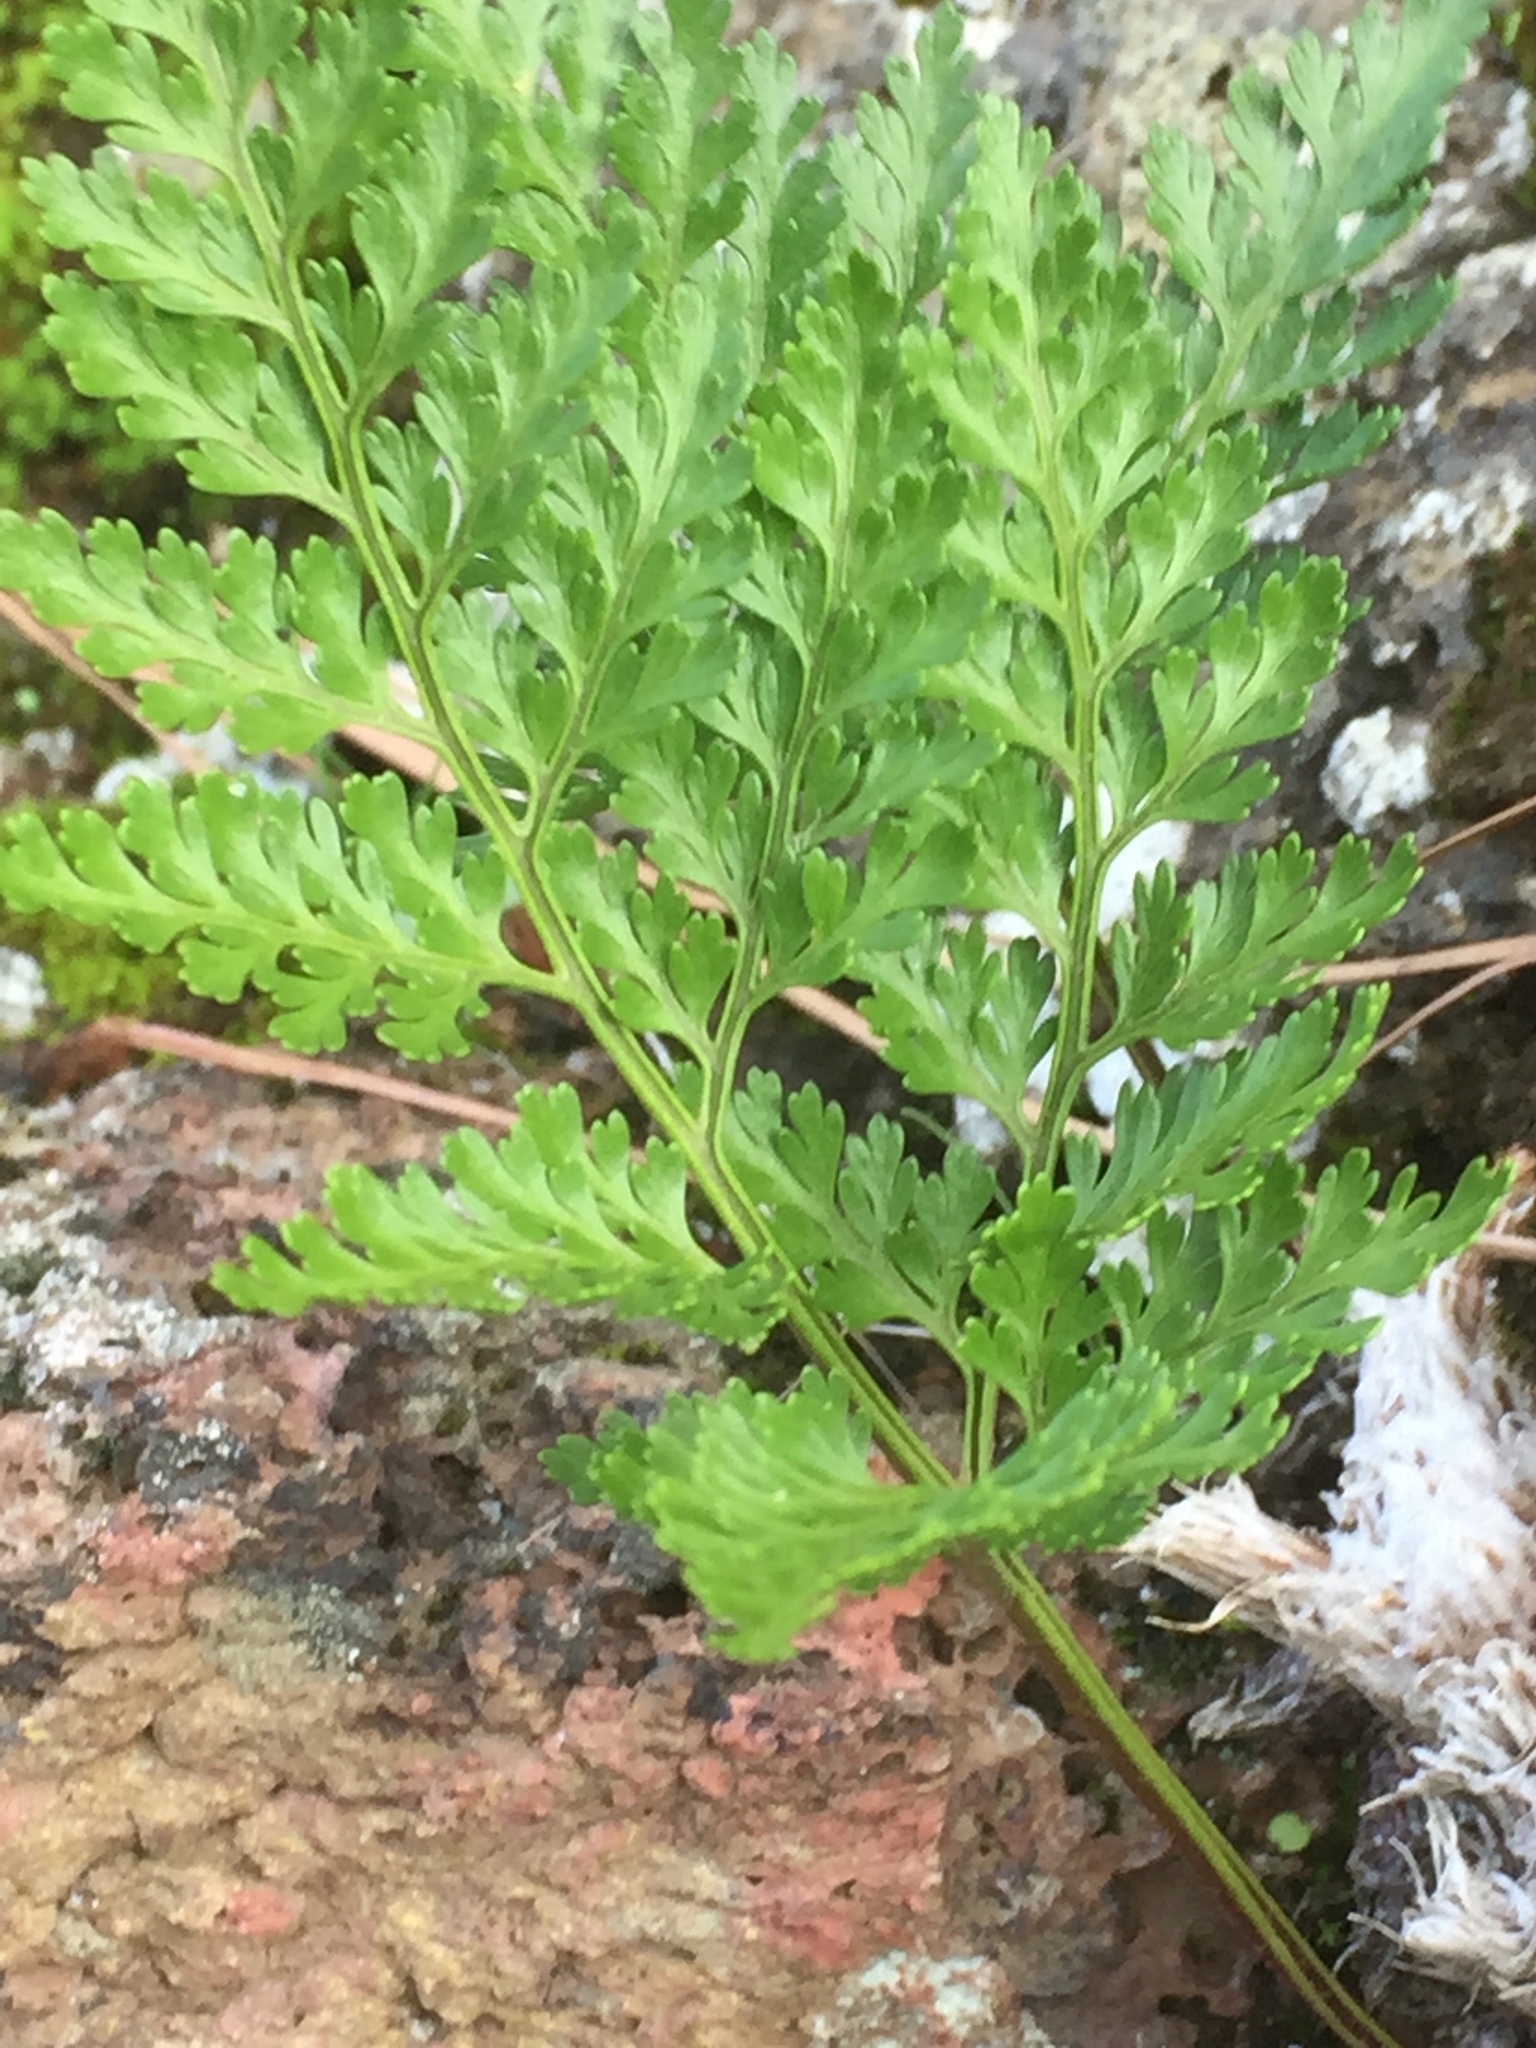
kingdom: Plantae
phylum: Tracheophyta
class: Polypodiopsida
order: Polypodiales
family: Davalliaceae
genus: Davallia
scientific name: Davallia canariensis
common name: Hare's-foot fern
